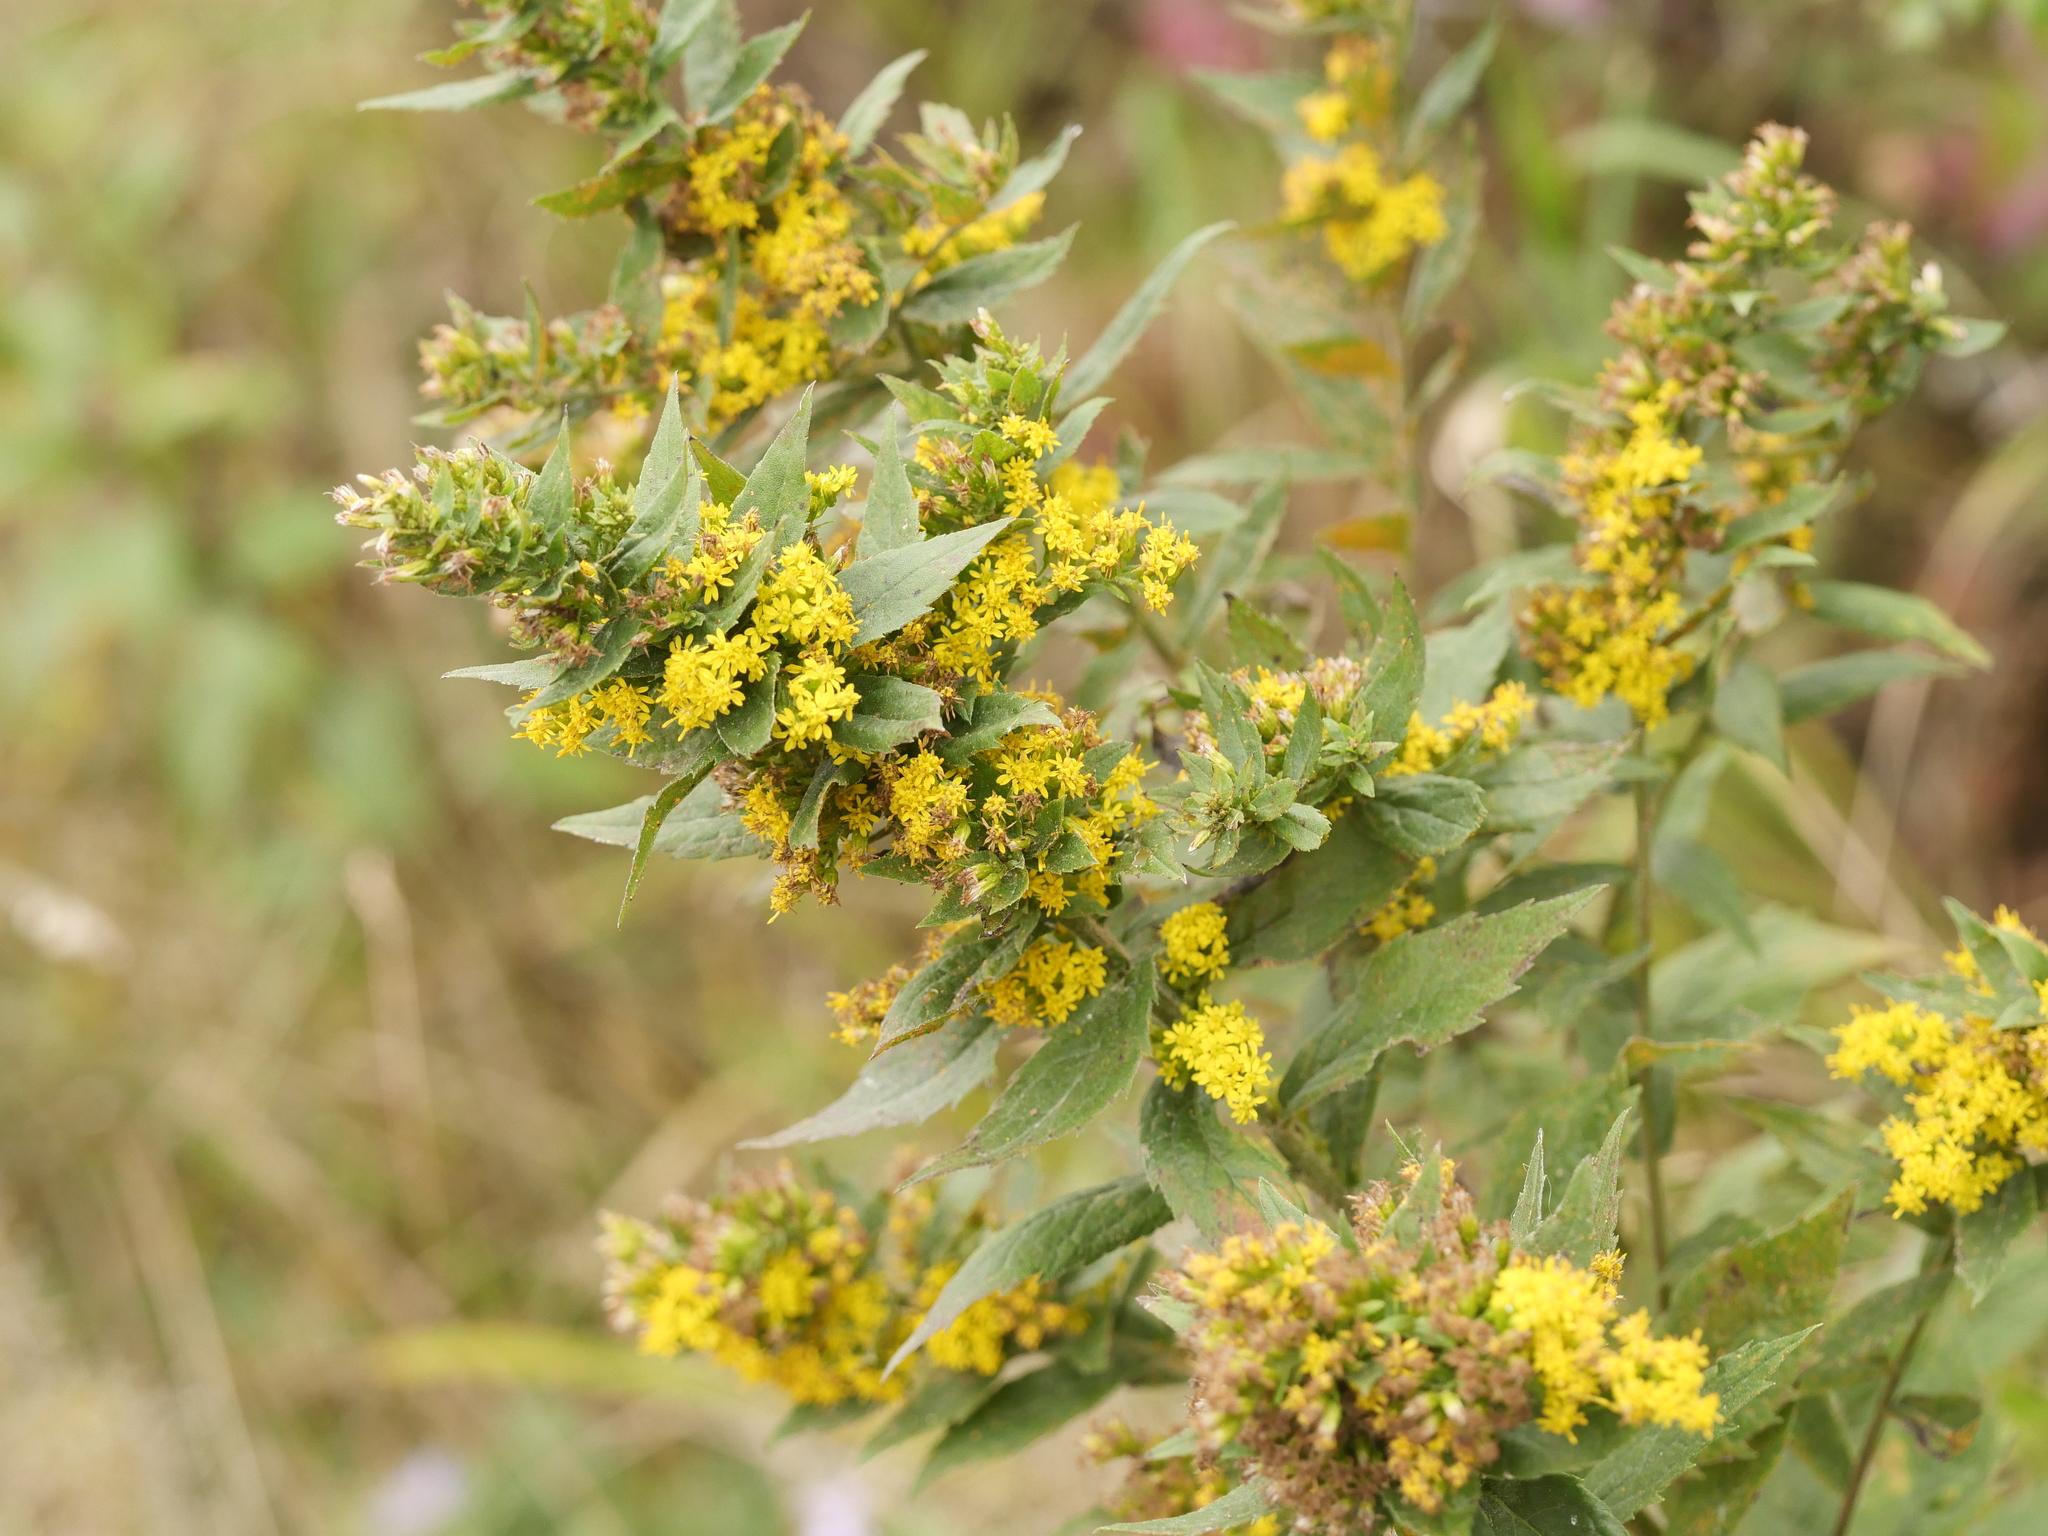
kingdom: Plantae
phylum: Tracheophyta
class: Magnoliopsida
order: Asterales
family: Asteraceae
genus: Solidago
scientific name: Solidago rugosa
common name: Rough-stemmed goldenrod
